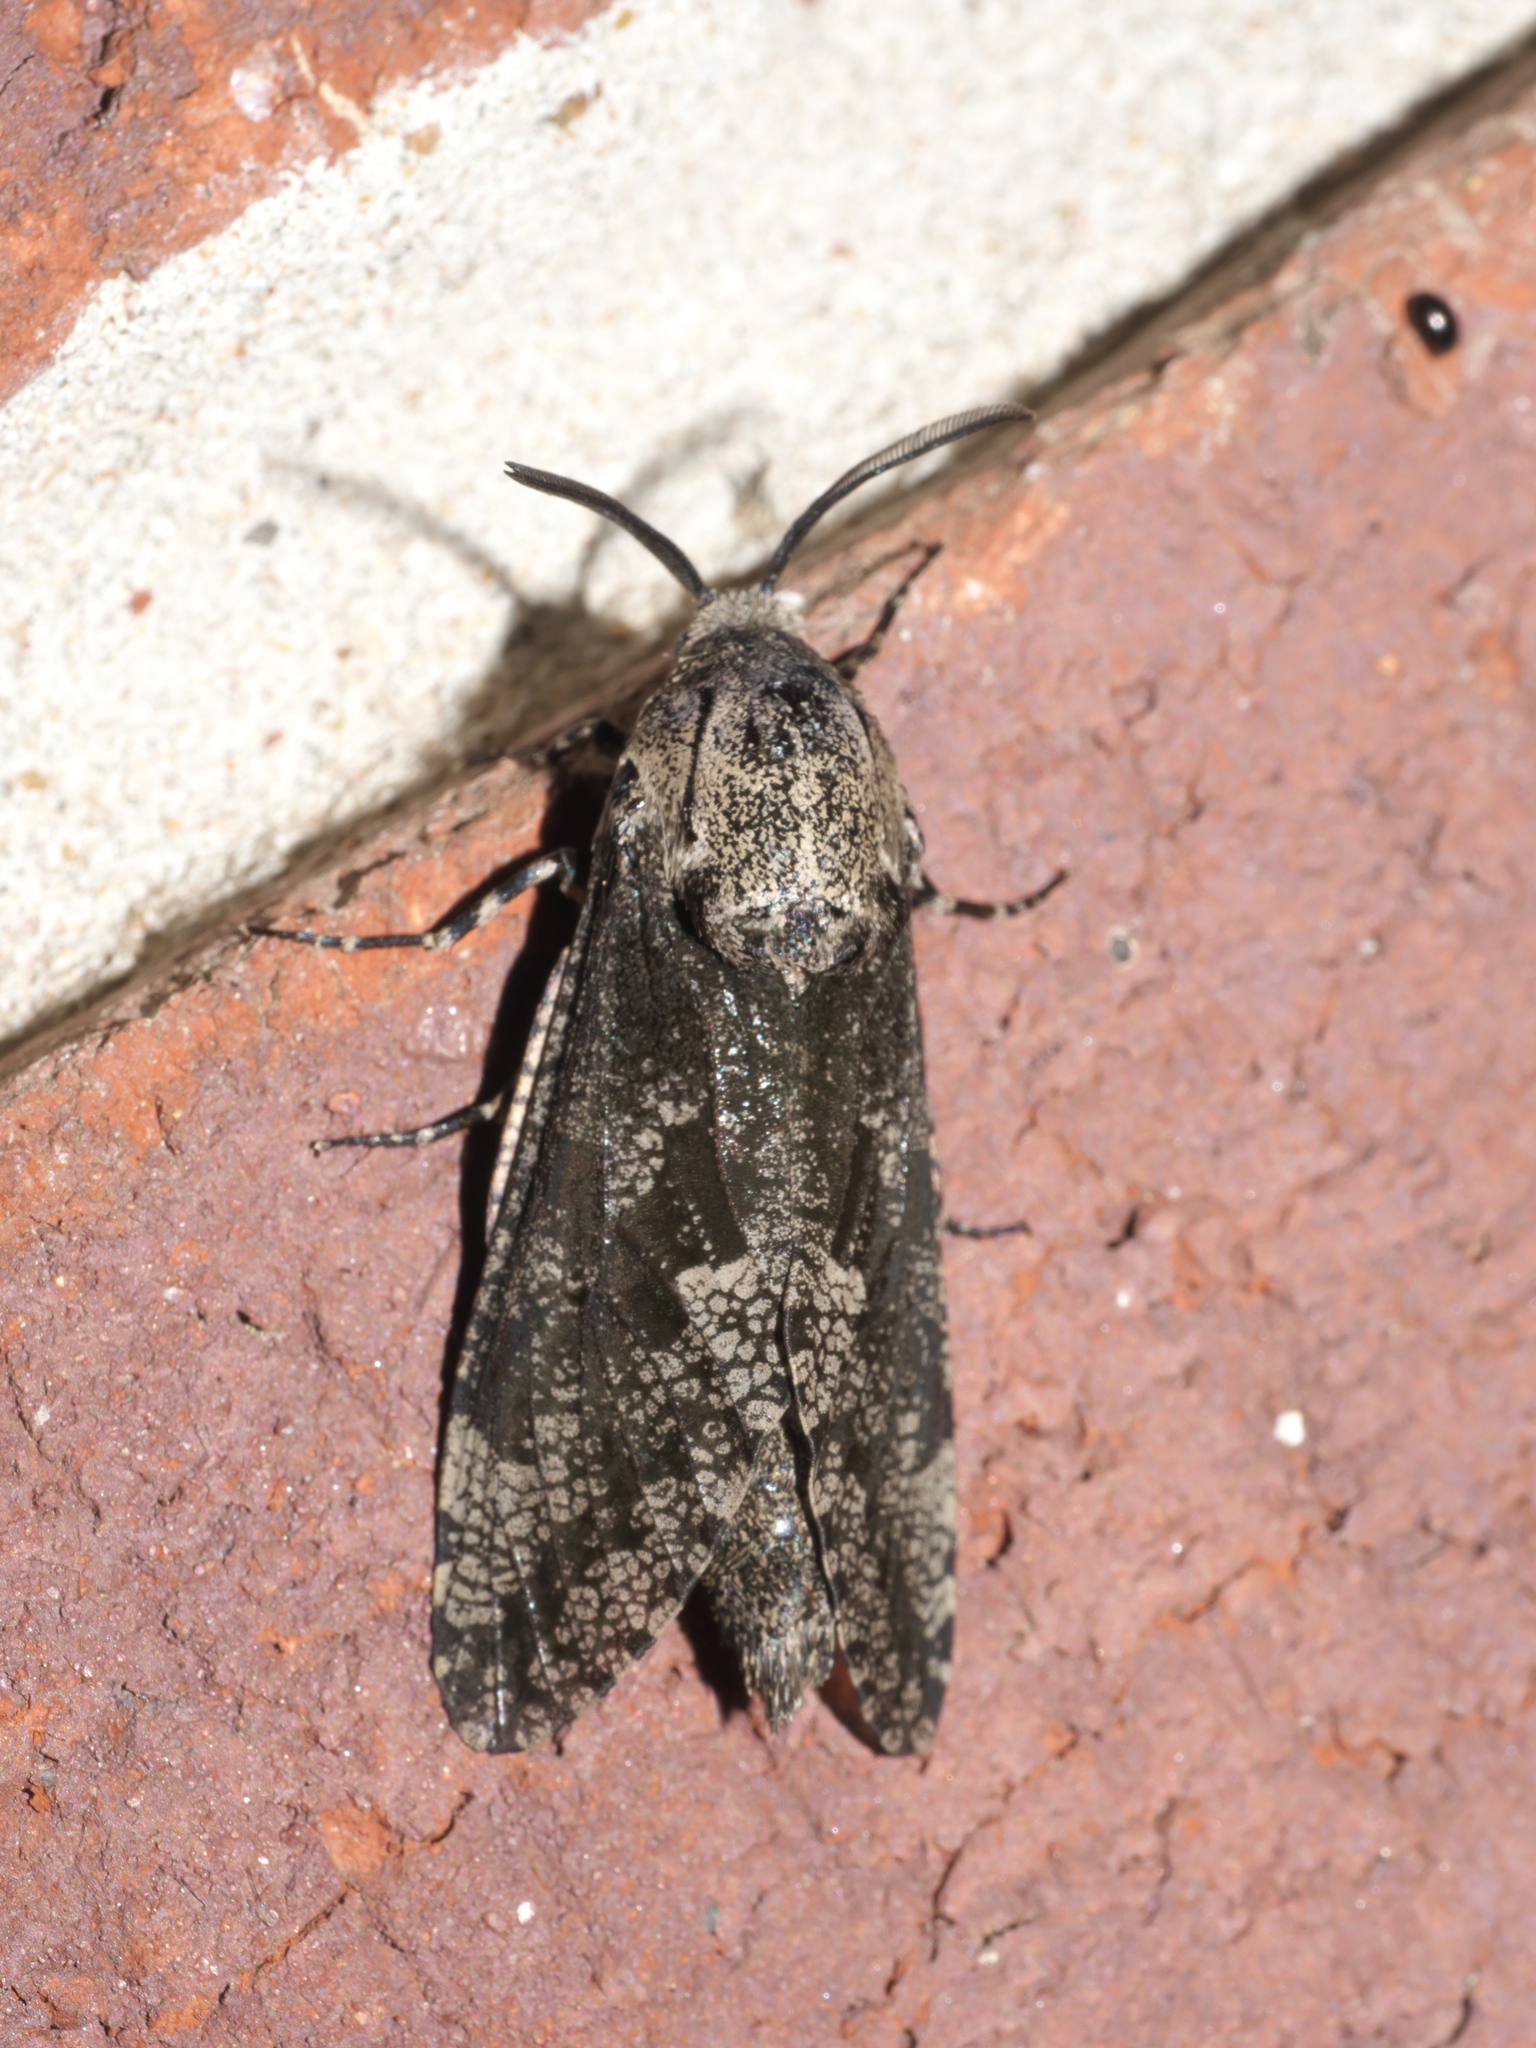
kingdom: Animalia
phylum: Arthropoda
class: Insecta
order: Lepidoptera
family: Cossidae
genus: Prionoxystus
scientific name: Prionoxystus robiniae
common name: Carpenterworm
